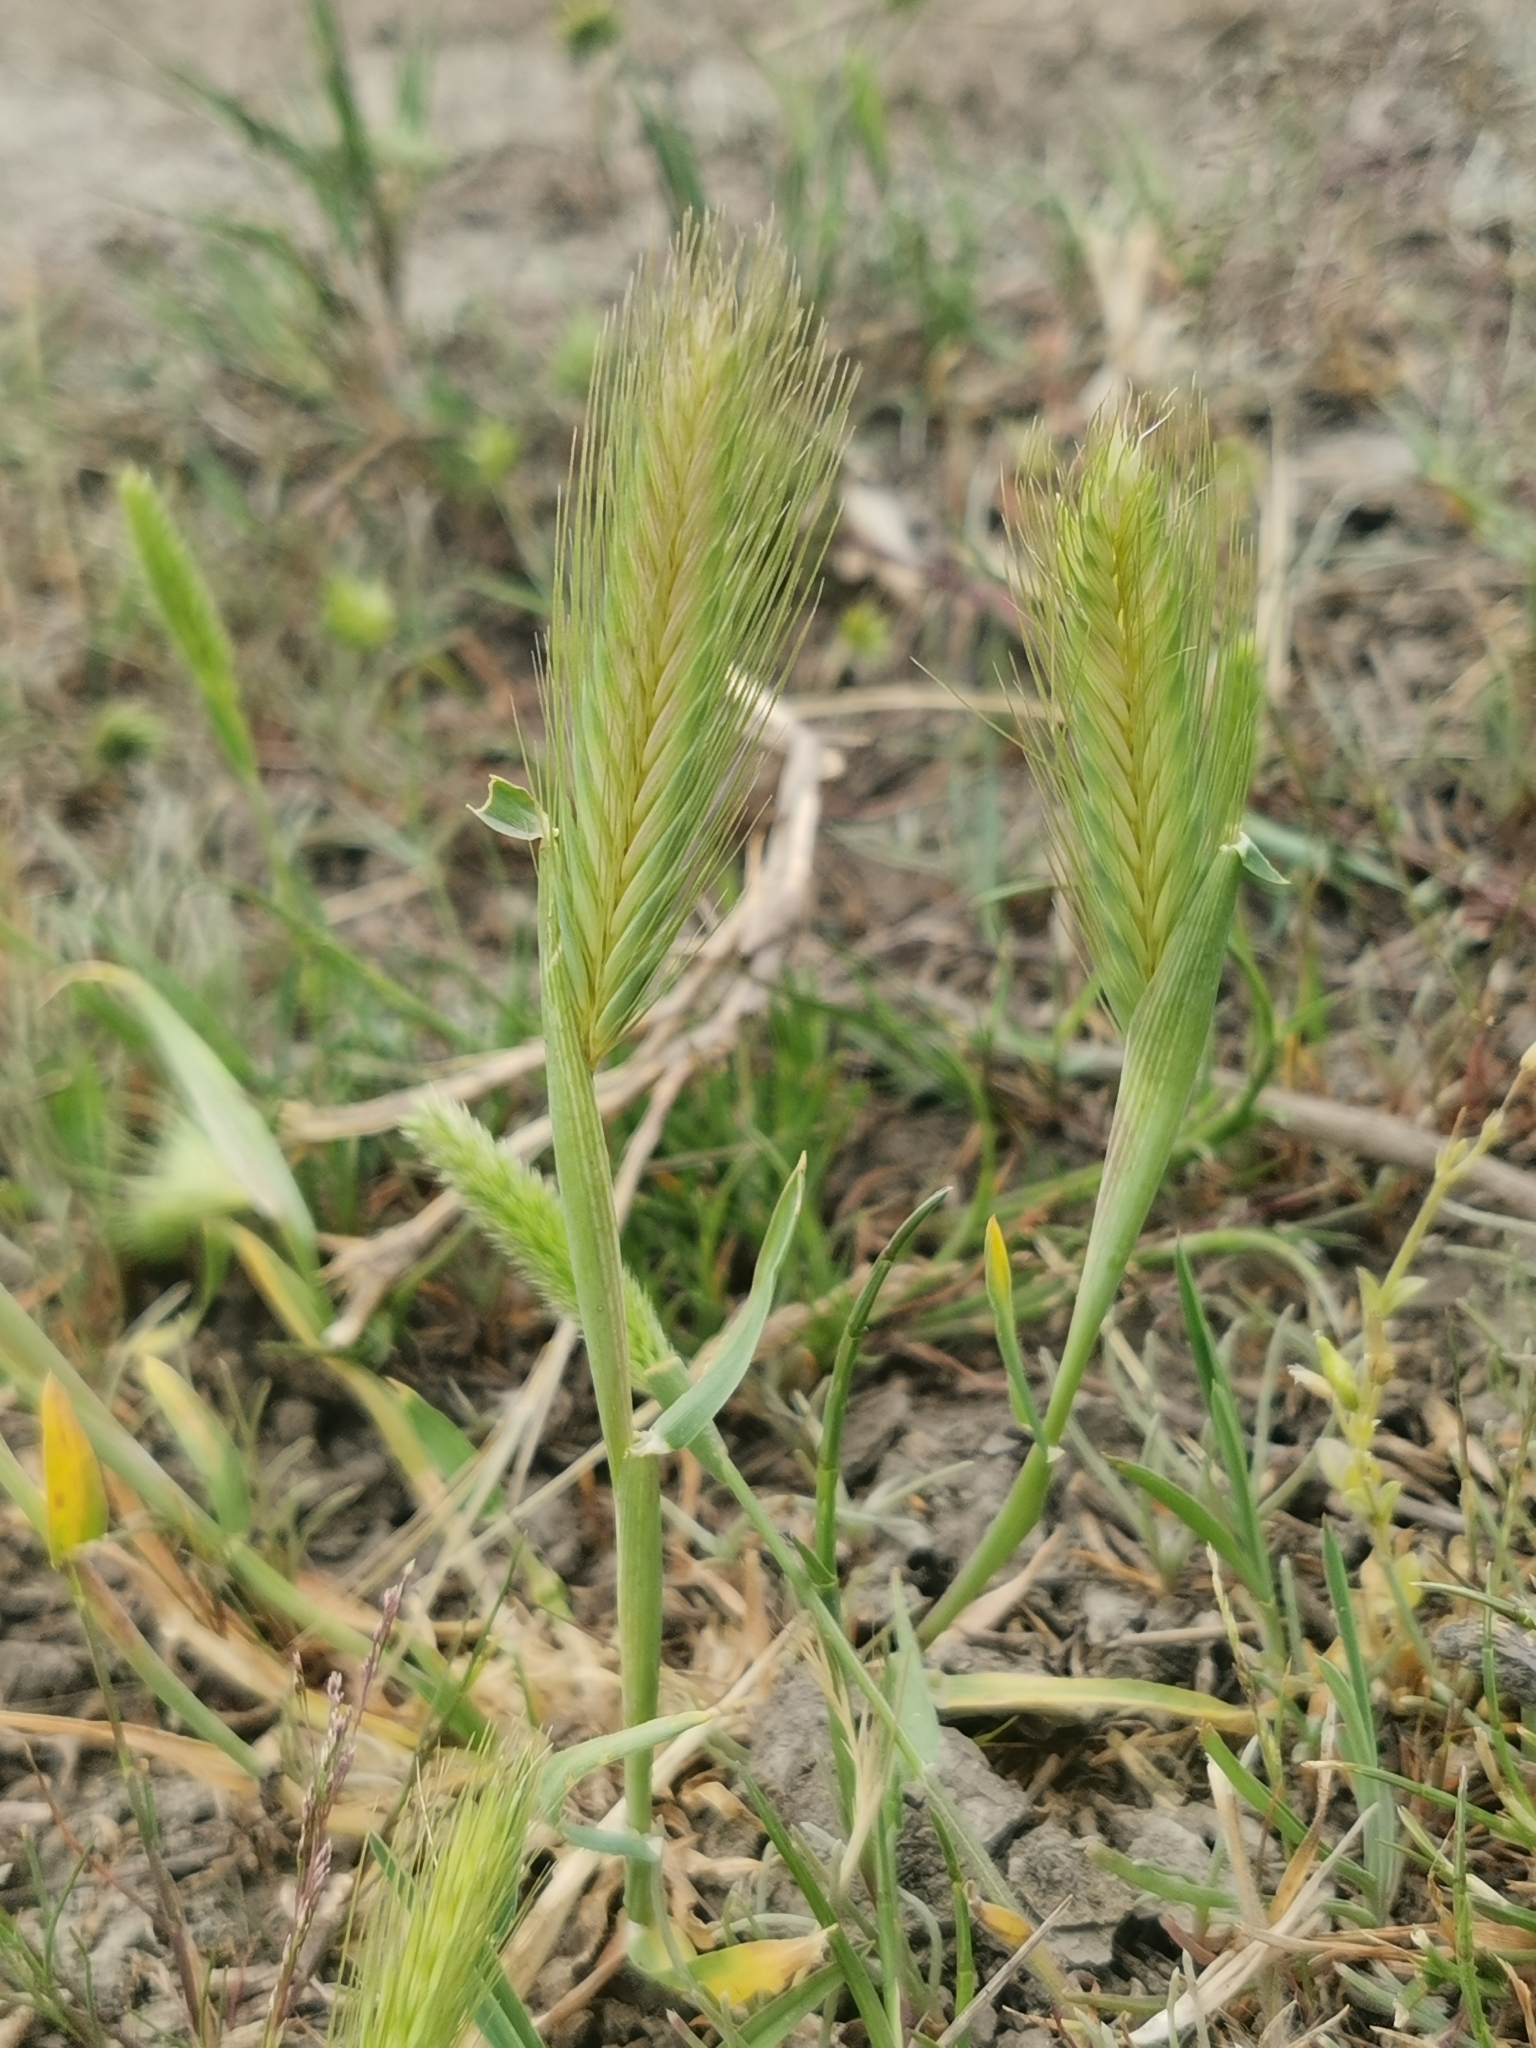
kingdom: Plantae
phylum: Tracheophyta
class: Liliopsida
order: Poales
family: Poaceae
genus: Hordeum
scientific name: Hordeum murinum
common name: Wall barley
